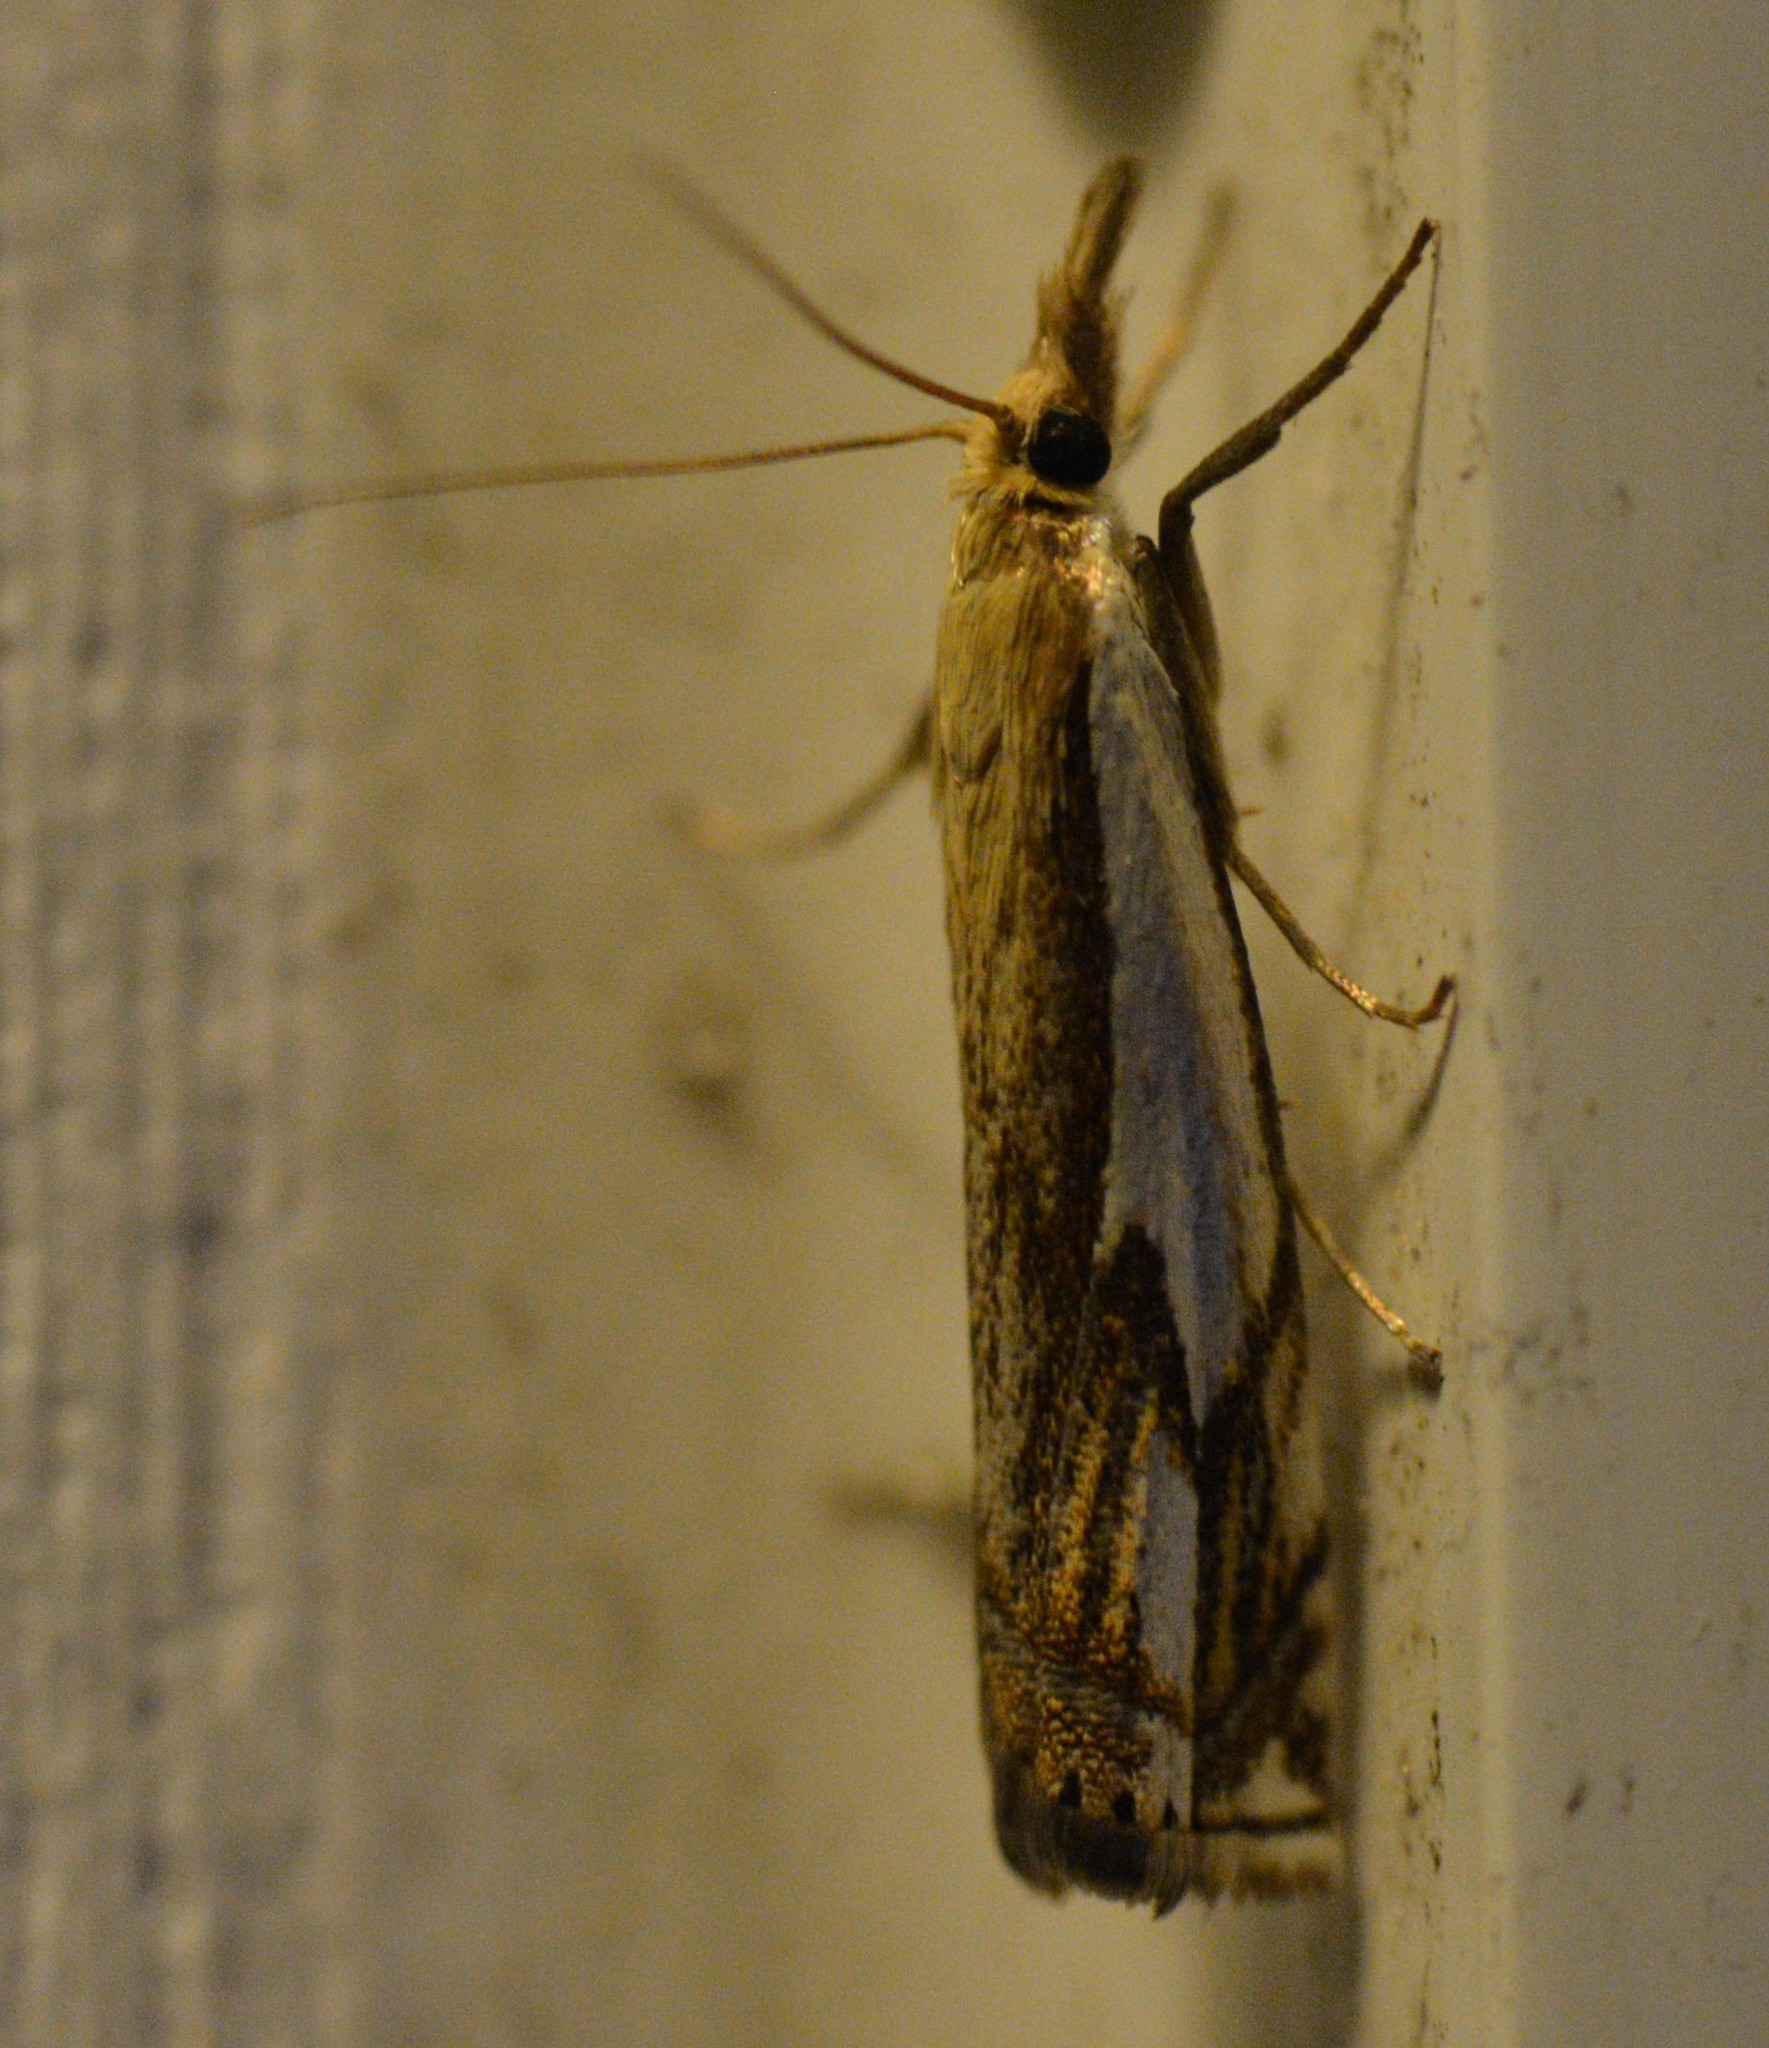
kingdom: Animalia
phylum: Arthropoda
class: Insecta
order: Lepidoptera
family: Crambidae
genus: Crambus
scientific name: Crambus agitatellus
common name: Double-banded grass-veneer
